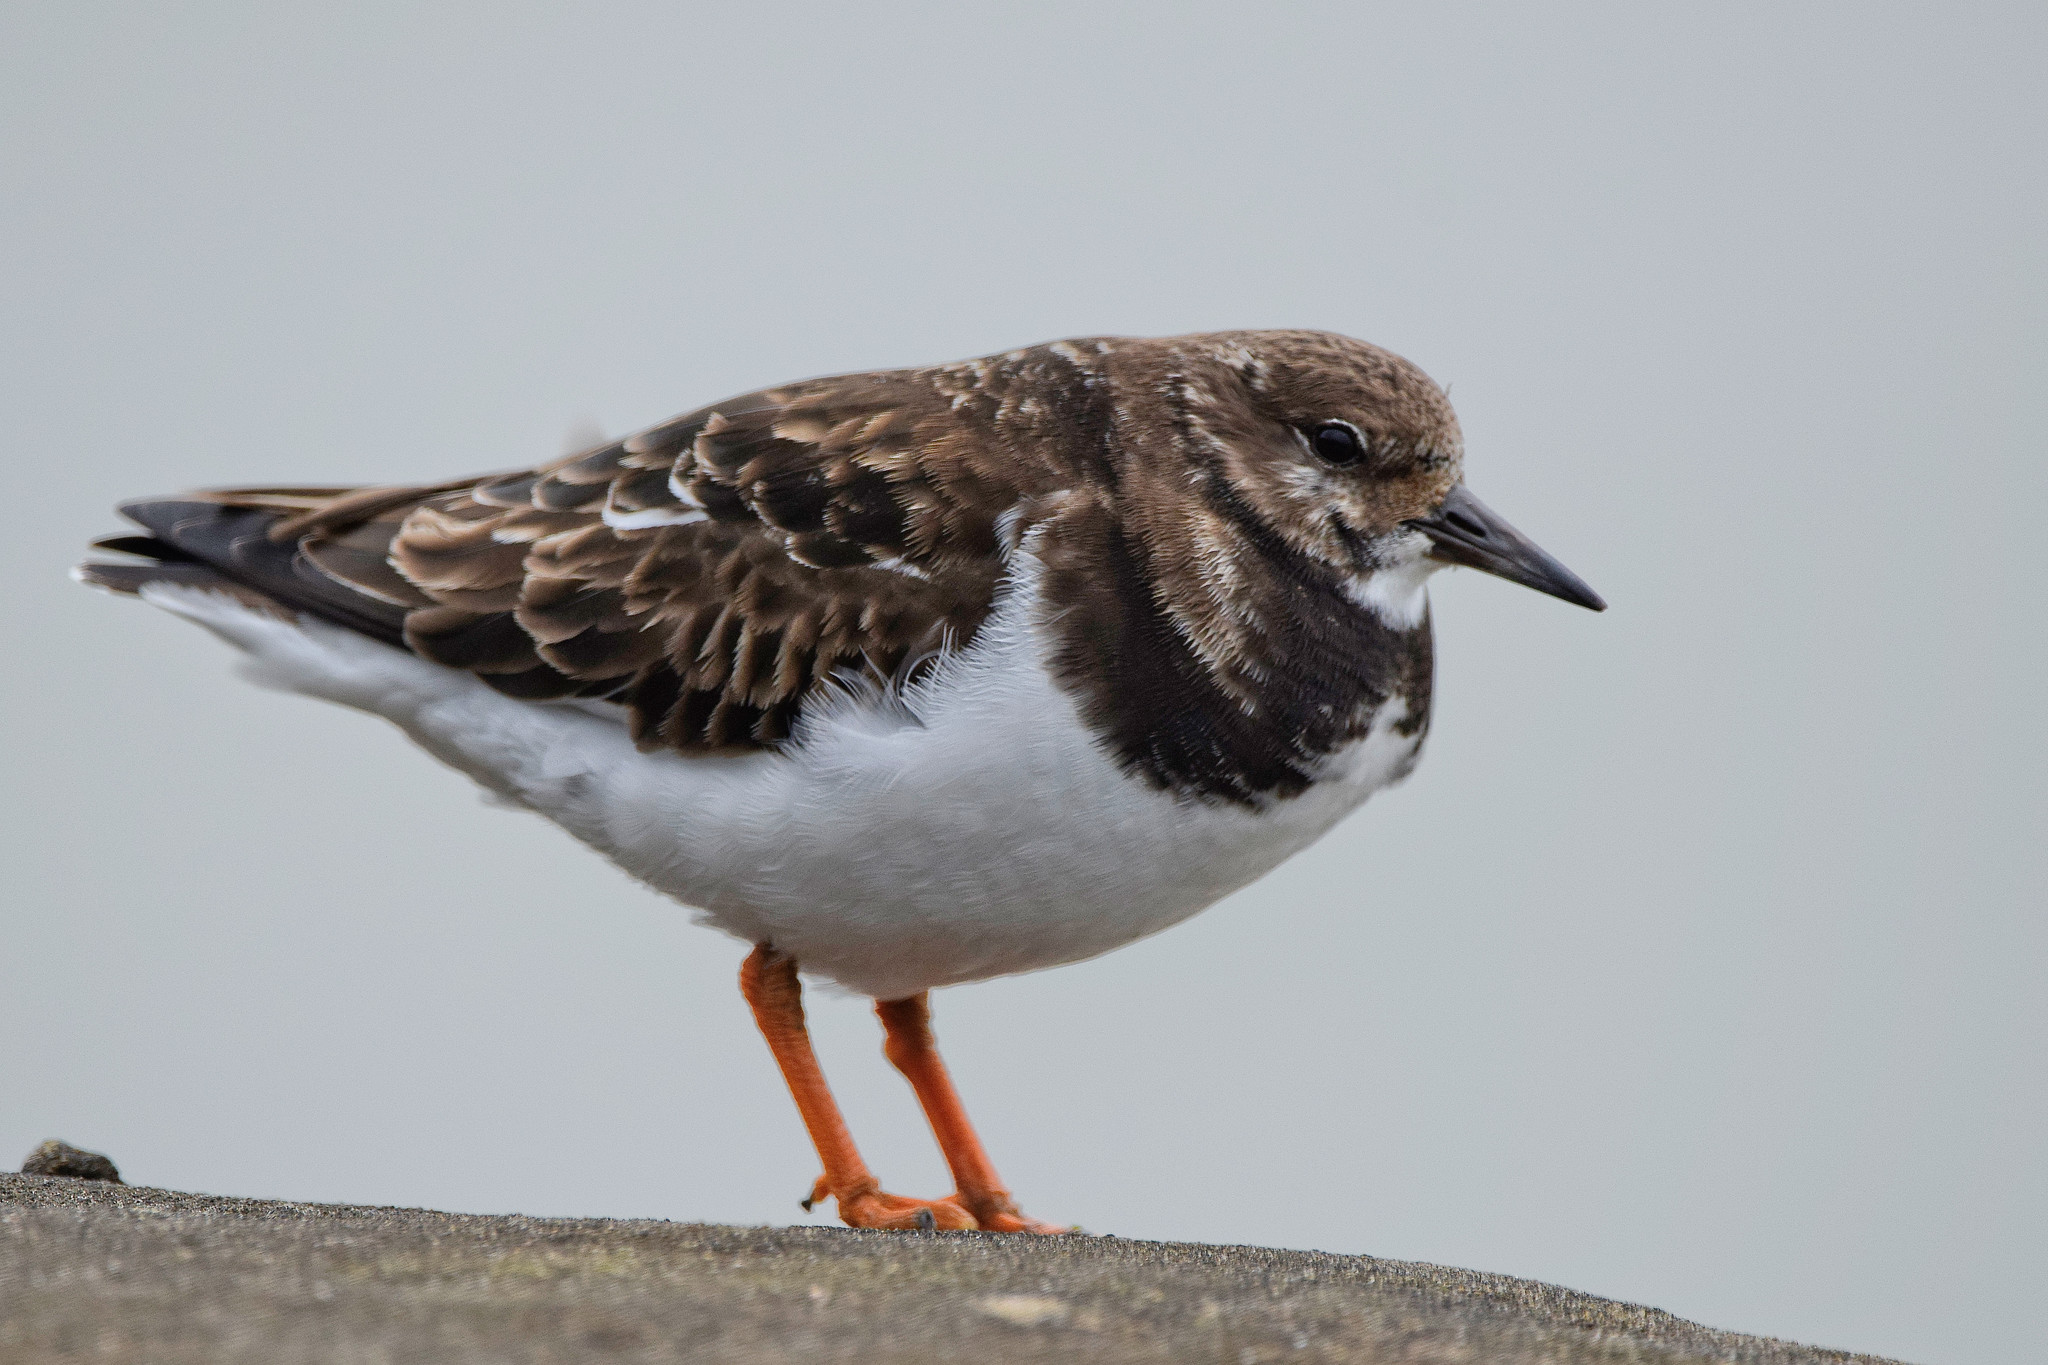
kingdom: Animalia
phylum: Chordata
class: Aves
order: Charadriiformes
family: Scolopacidae
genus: Arenaria
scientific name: Arenaria interpres
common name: Ruddy turnstone
